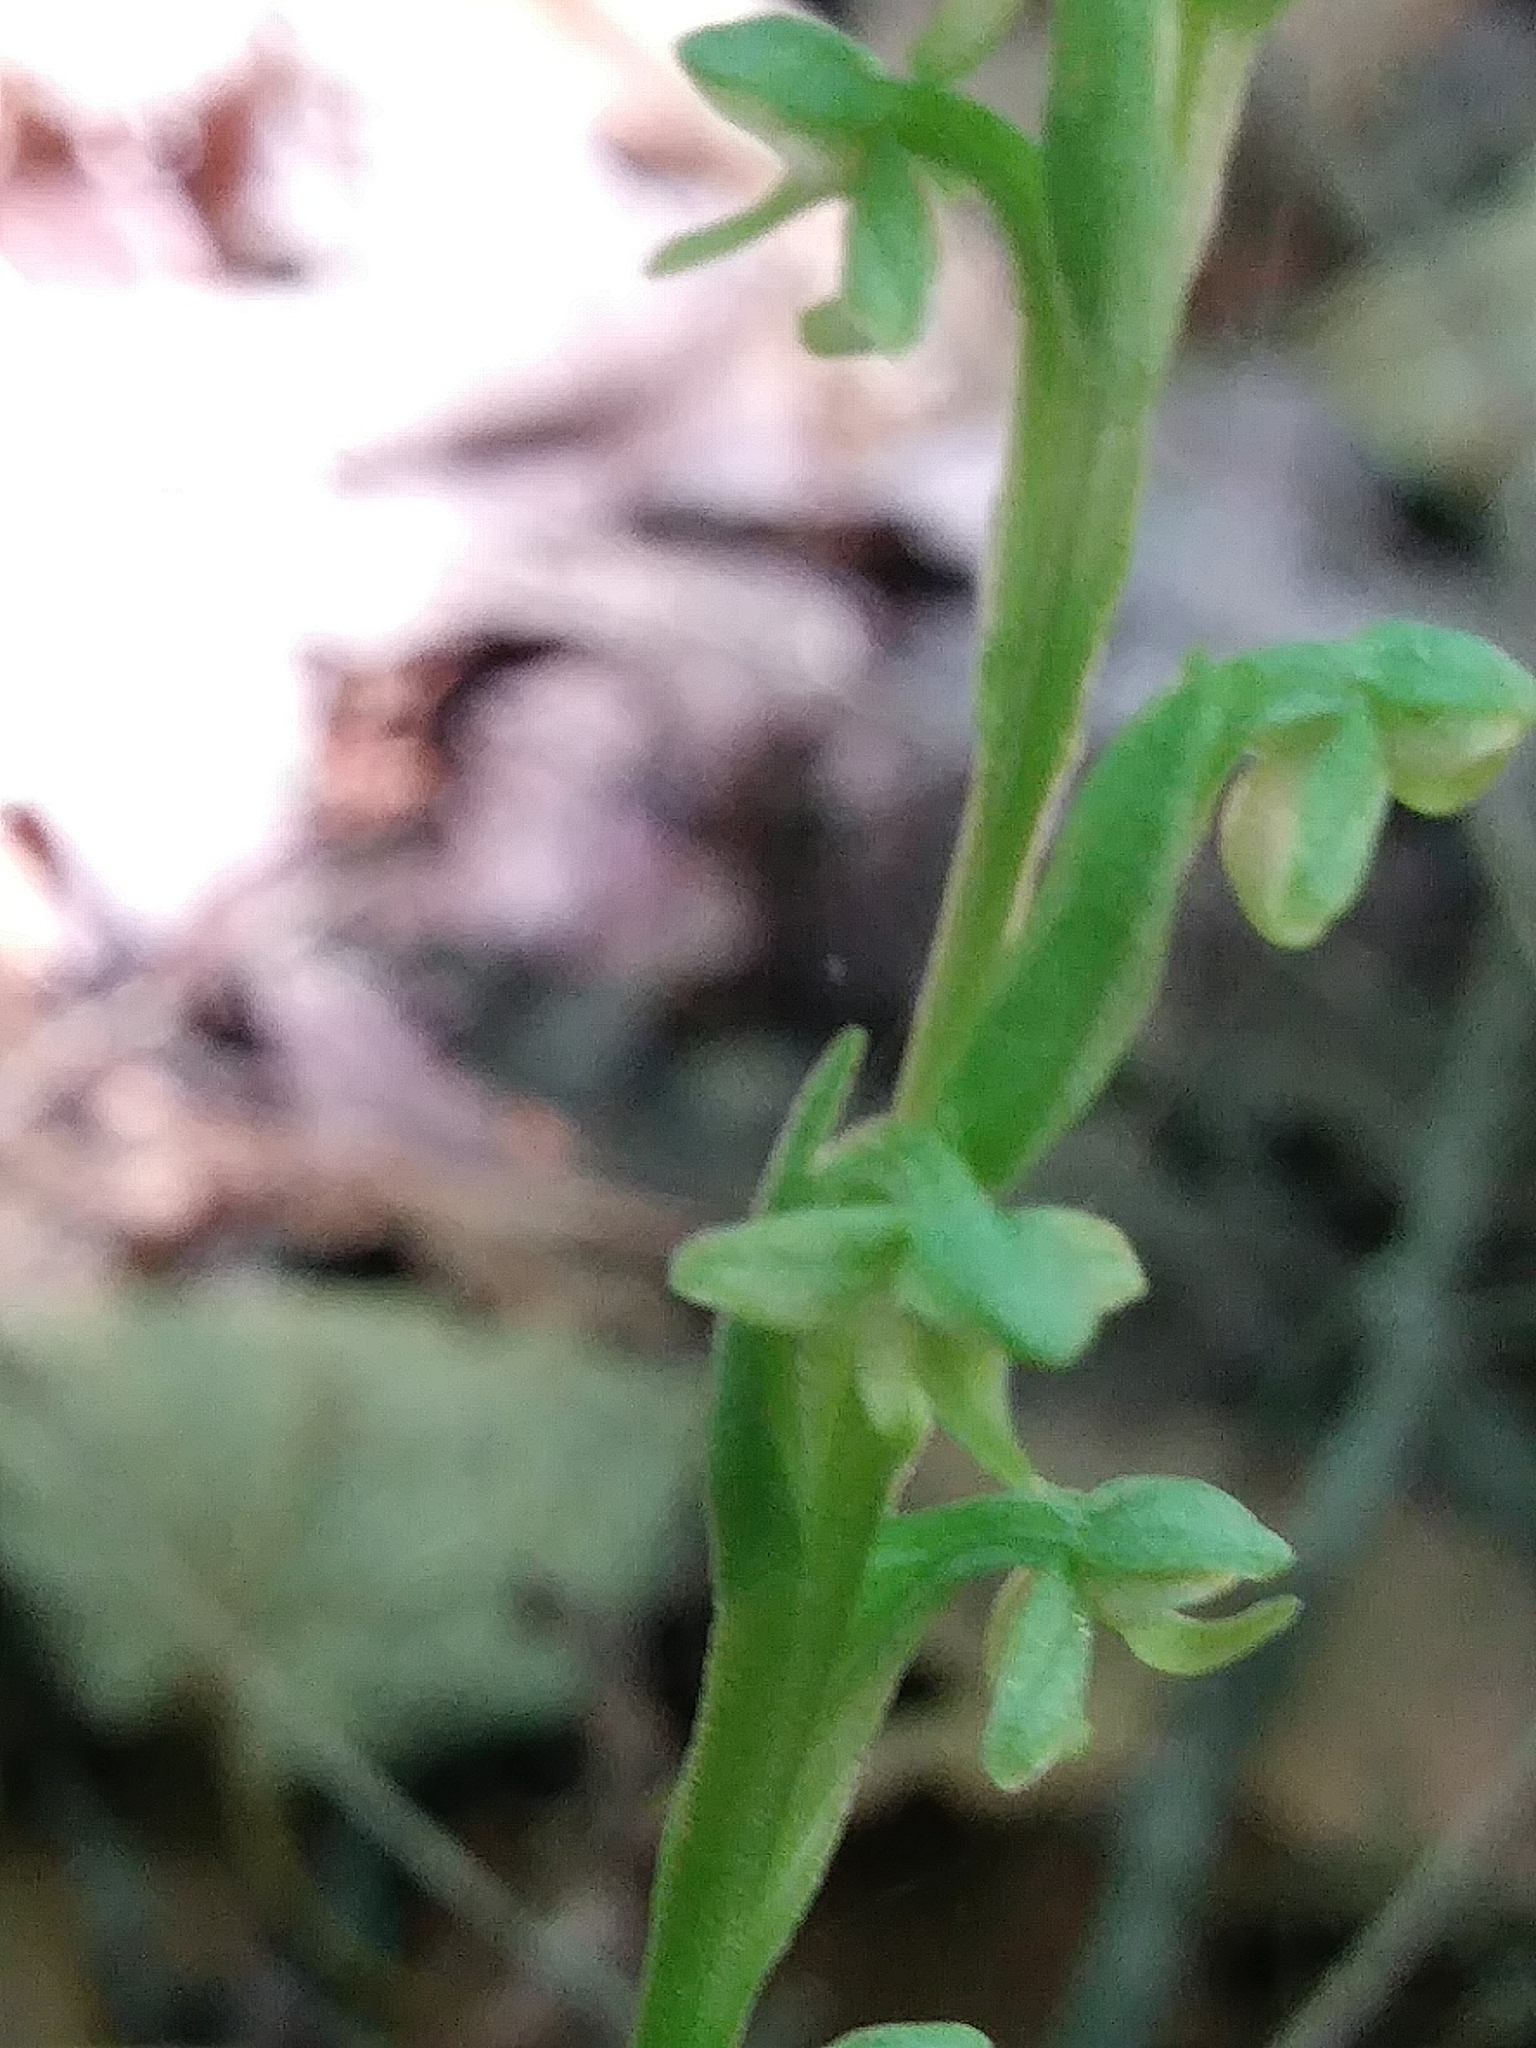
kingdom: Plantae
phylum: Tracheophyta
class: Liliopsida
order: Asparagales
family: Orchidaceae
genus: Platanthera
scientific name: Platanthera aquilonis
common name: Northern green orchid
